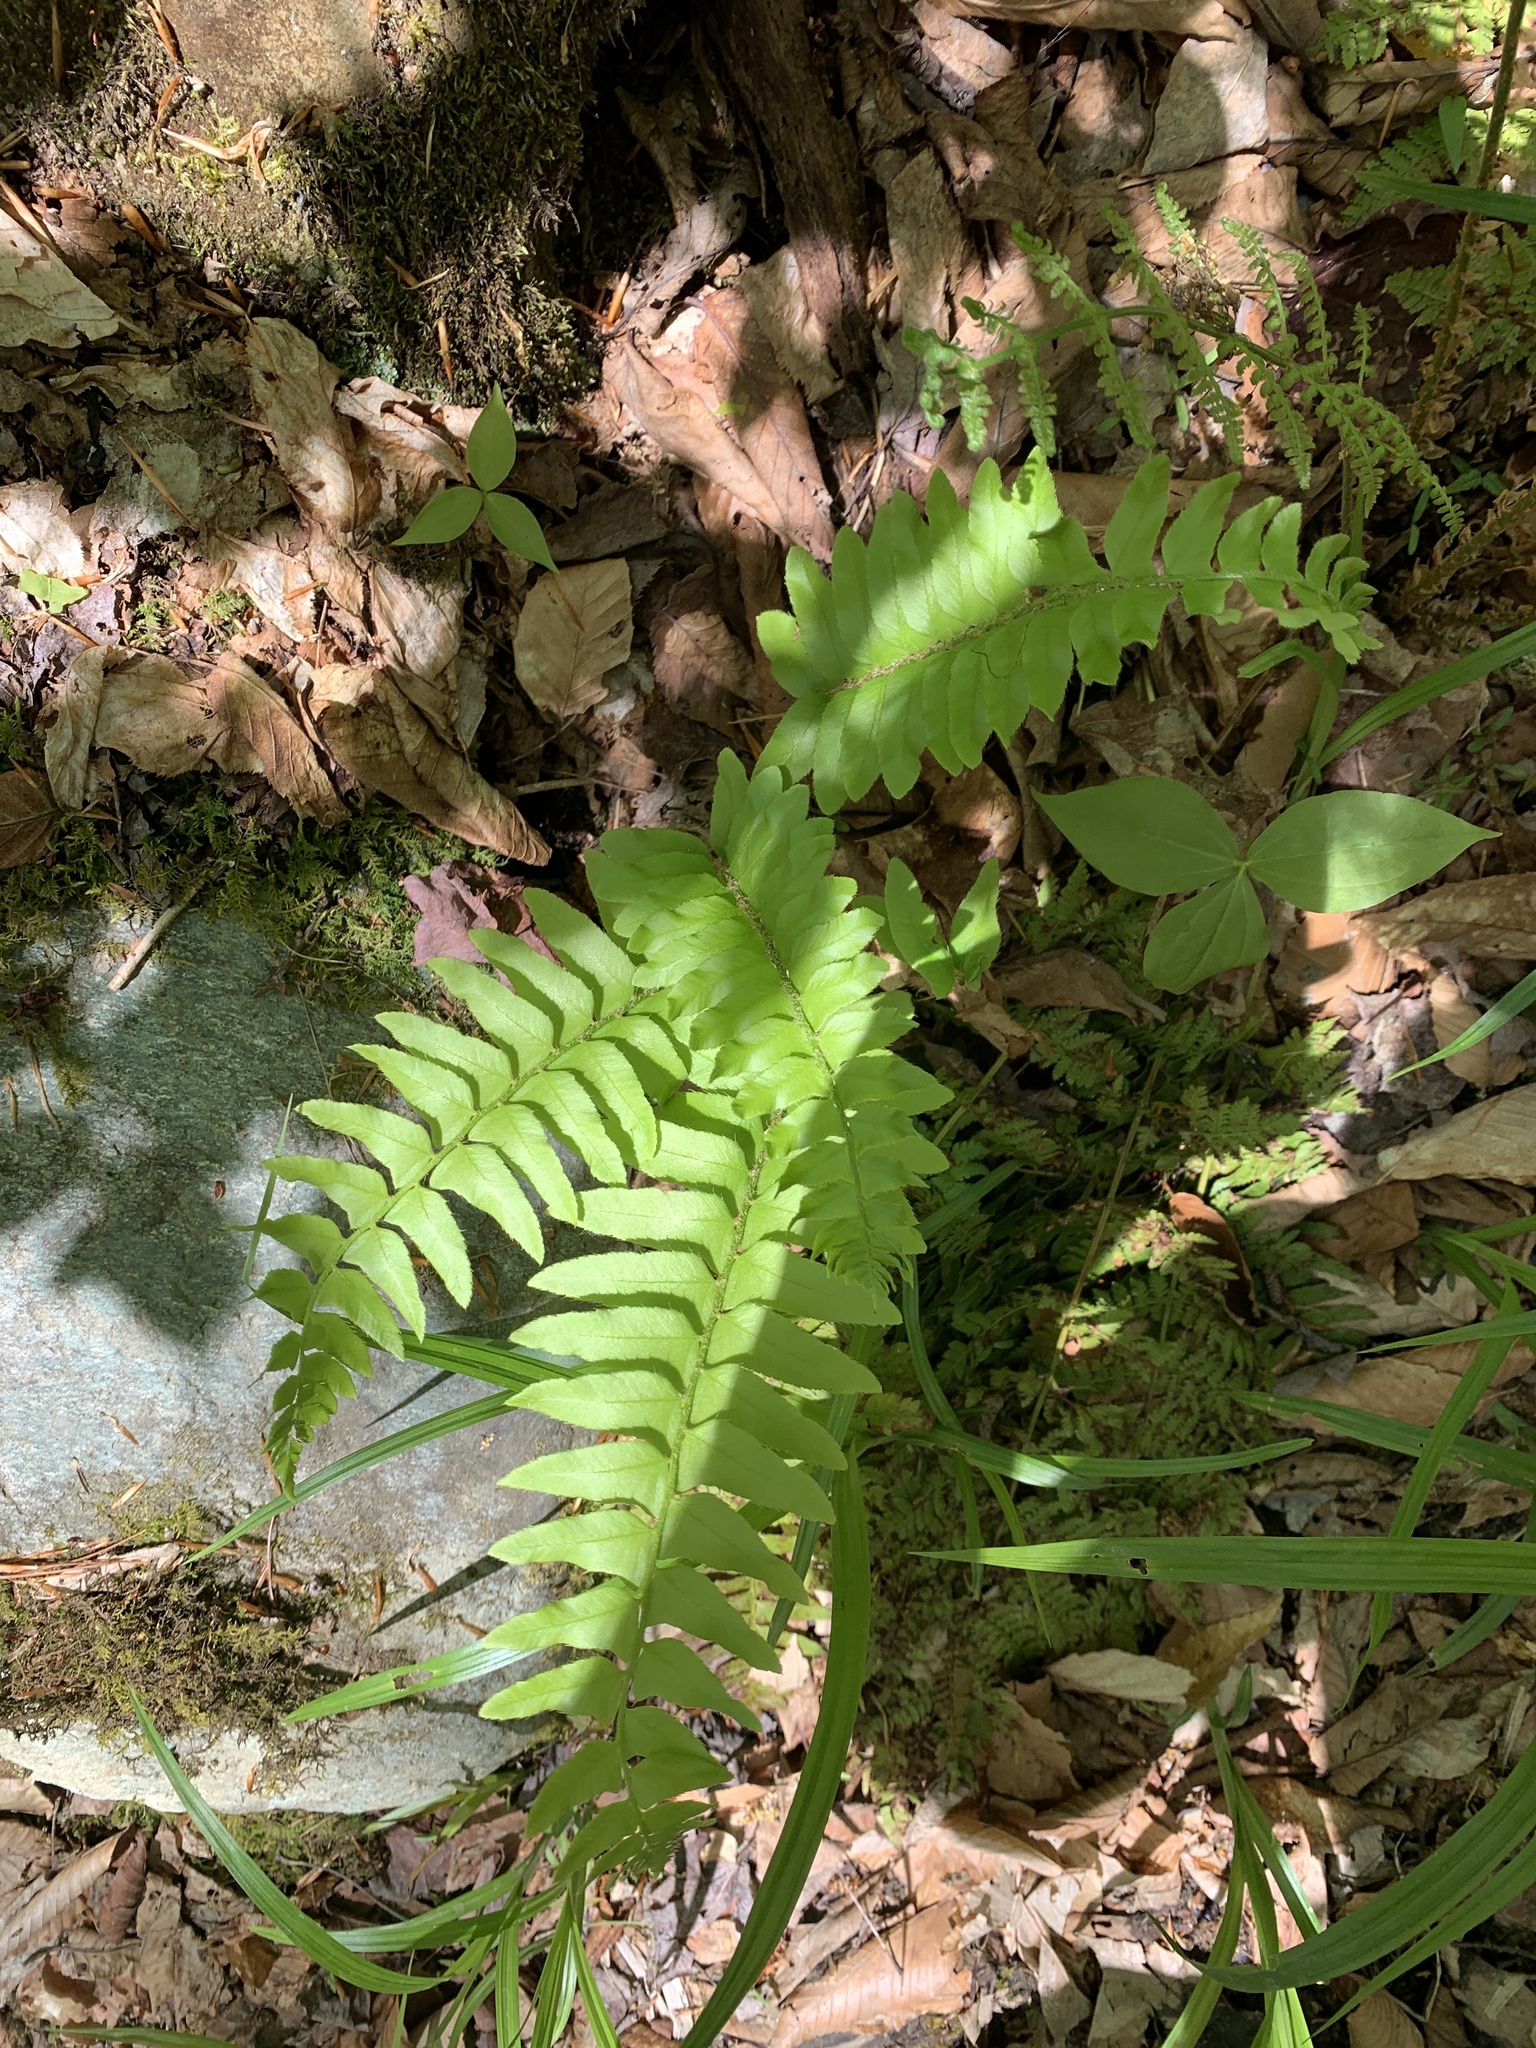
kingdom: Plantae
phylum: Tracheophyta
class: Polypodiopsida
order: Polypodiales
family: Dryopteridaceae
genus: Polystichum
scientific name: Polystichum acrostichoides
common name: Christmas fern
